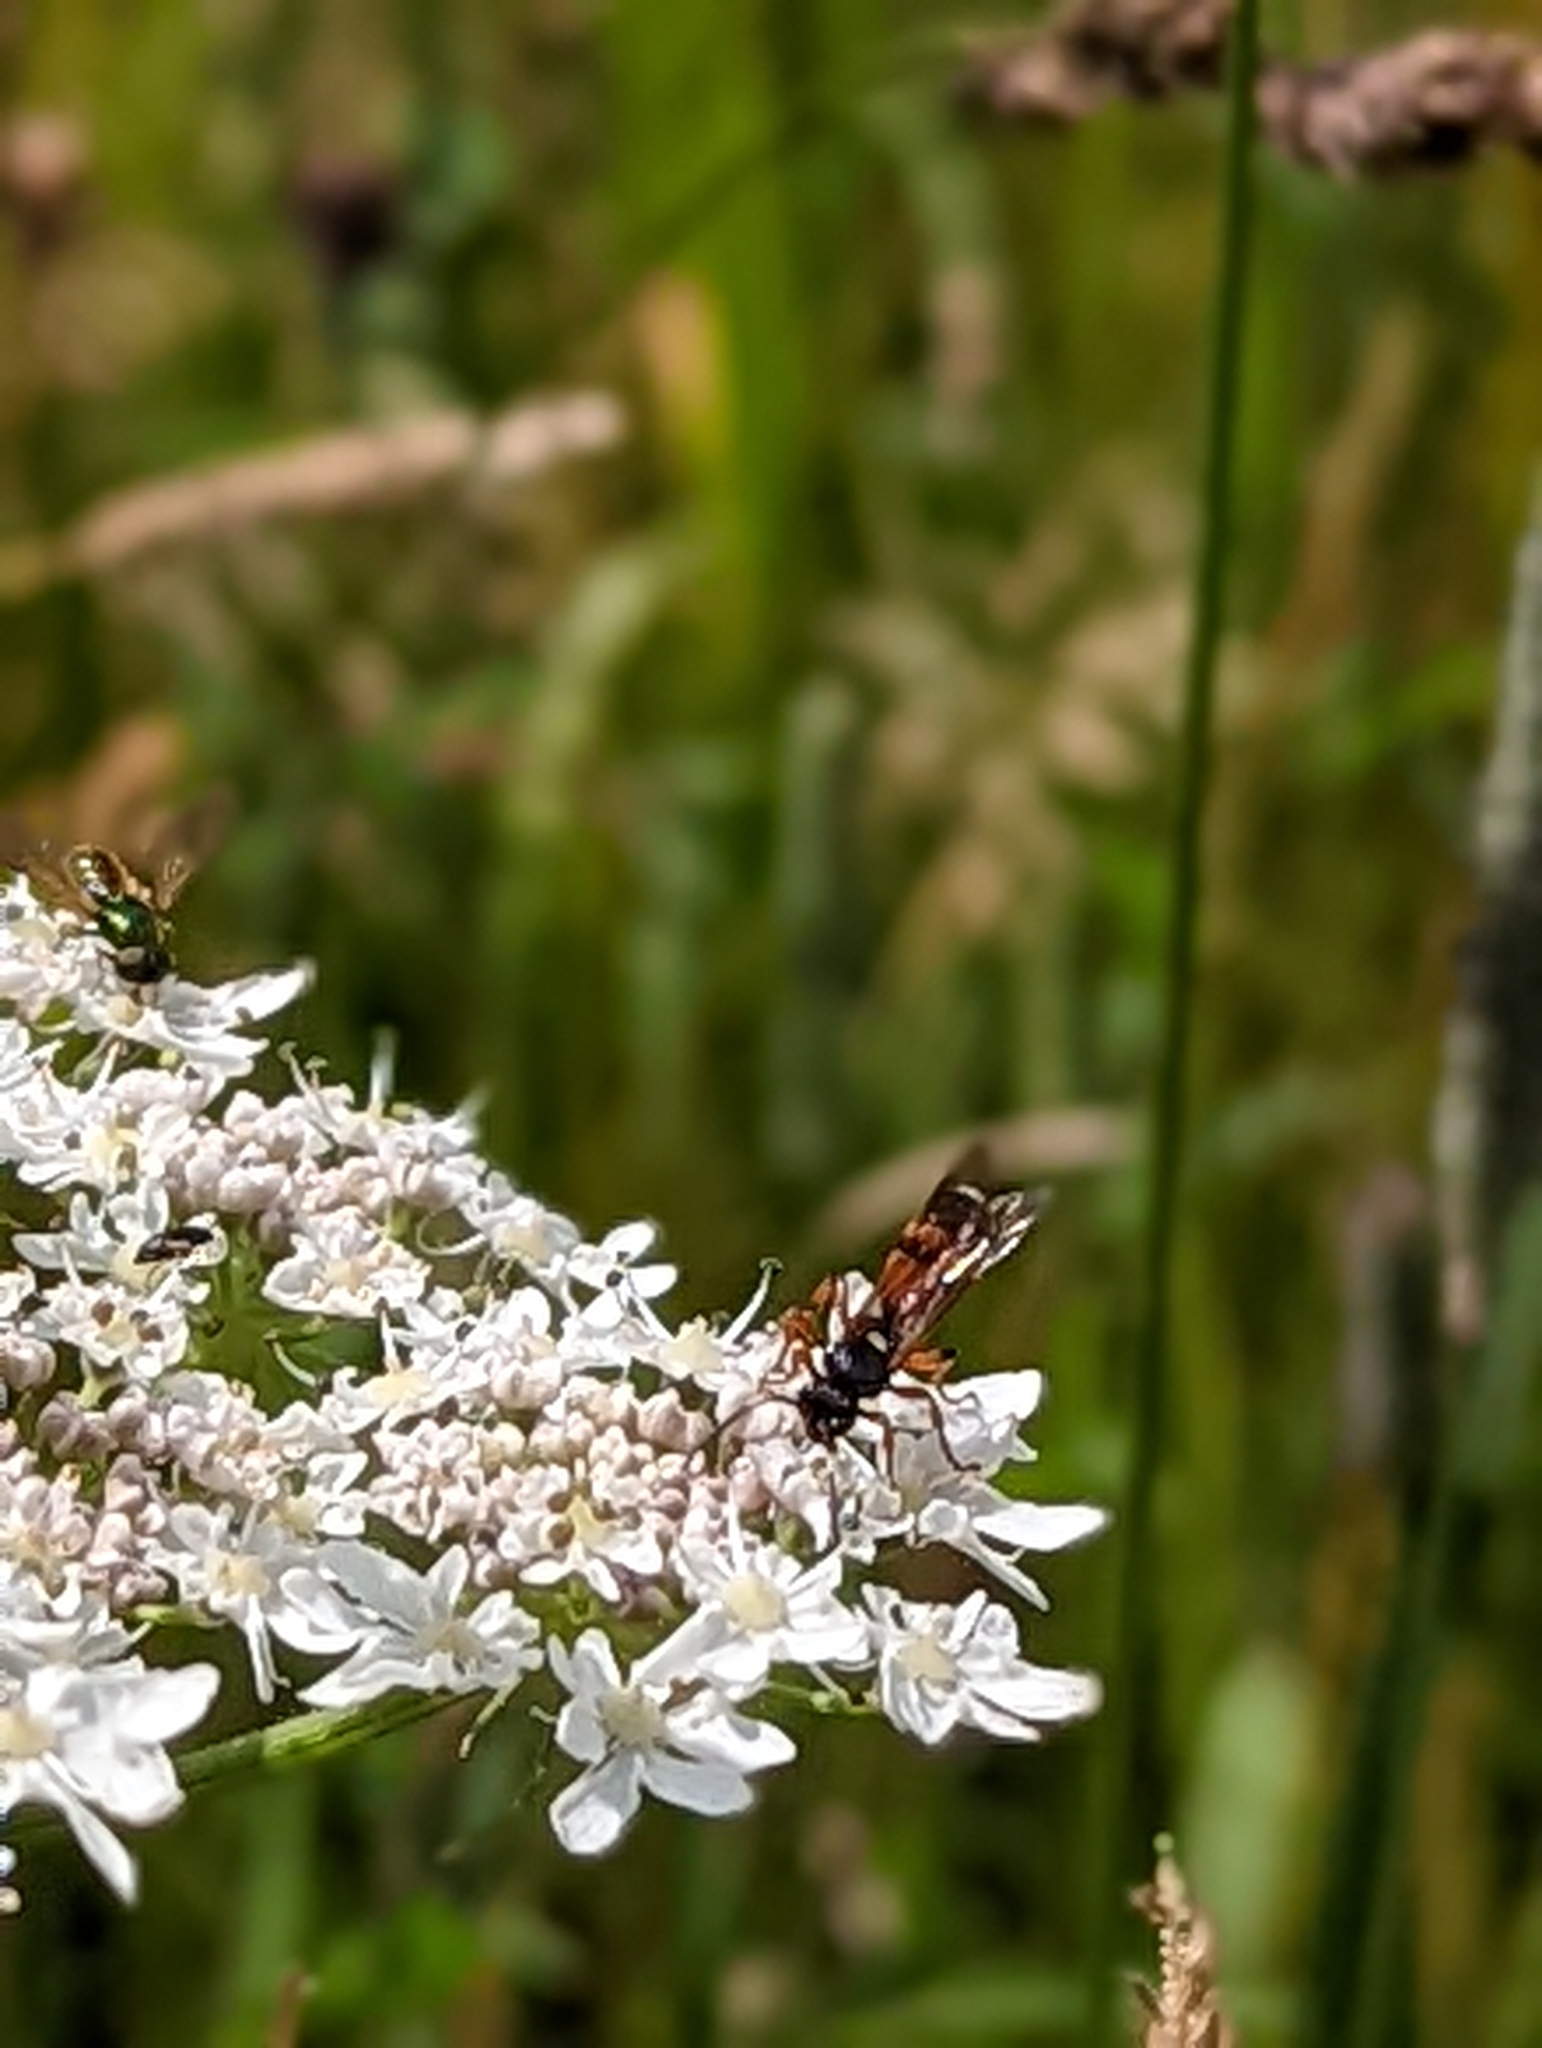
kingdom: Animalia
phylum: Arthropoda
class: Insecta
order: Hymenoptera
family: Ichneumonidae
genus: Ichneumon
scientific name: Ichneumon sarcitorius
